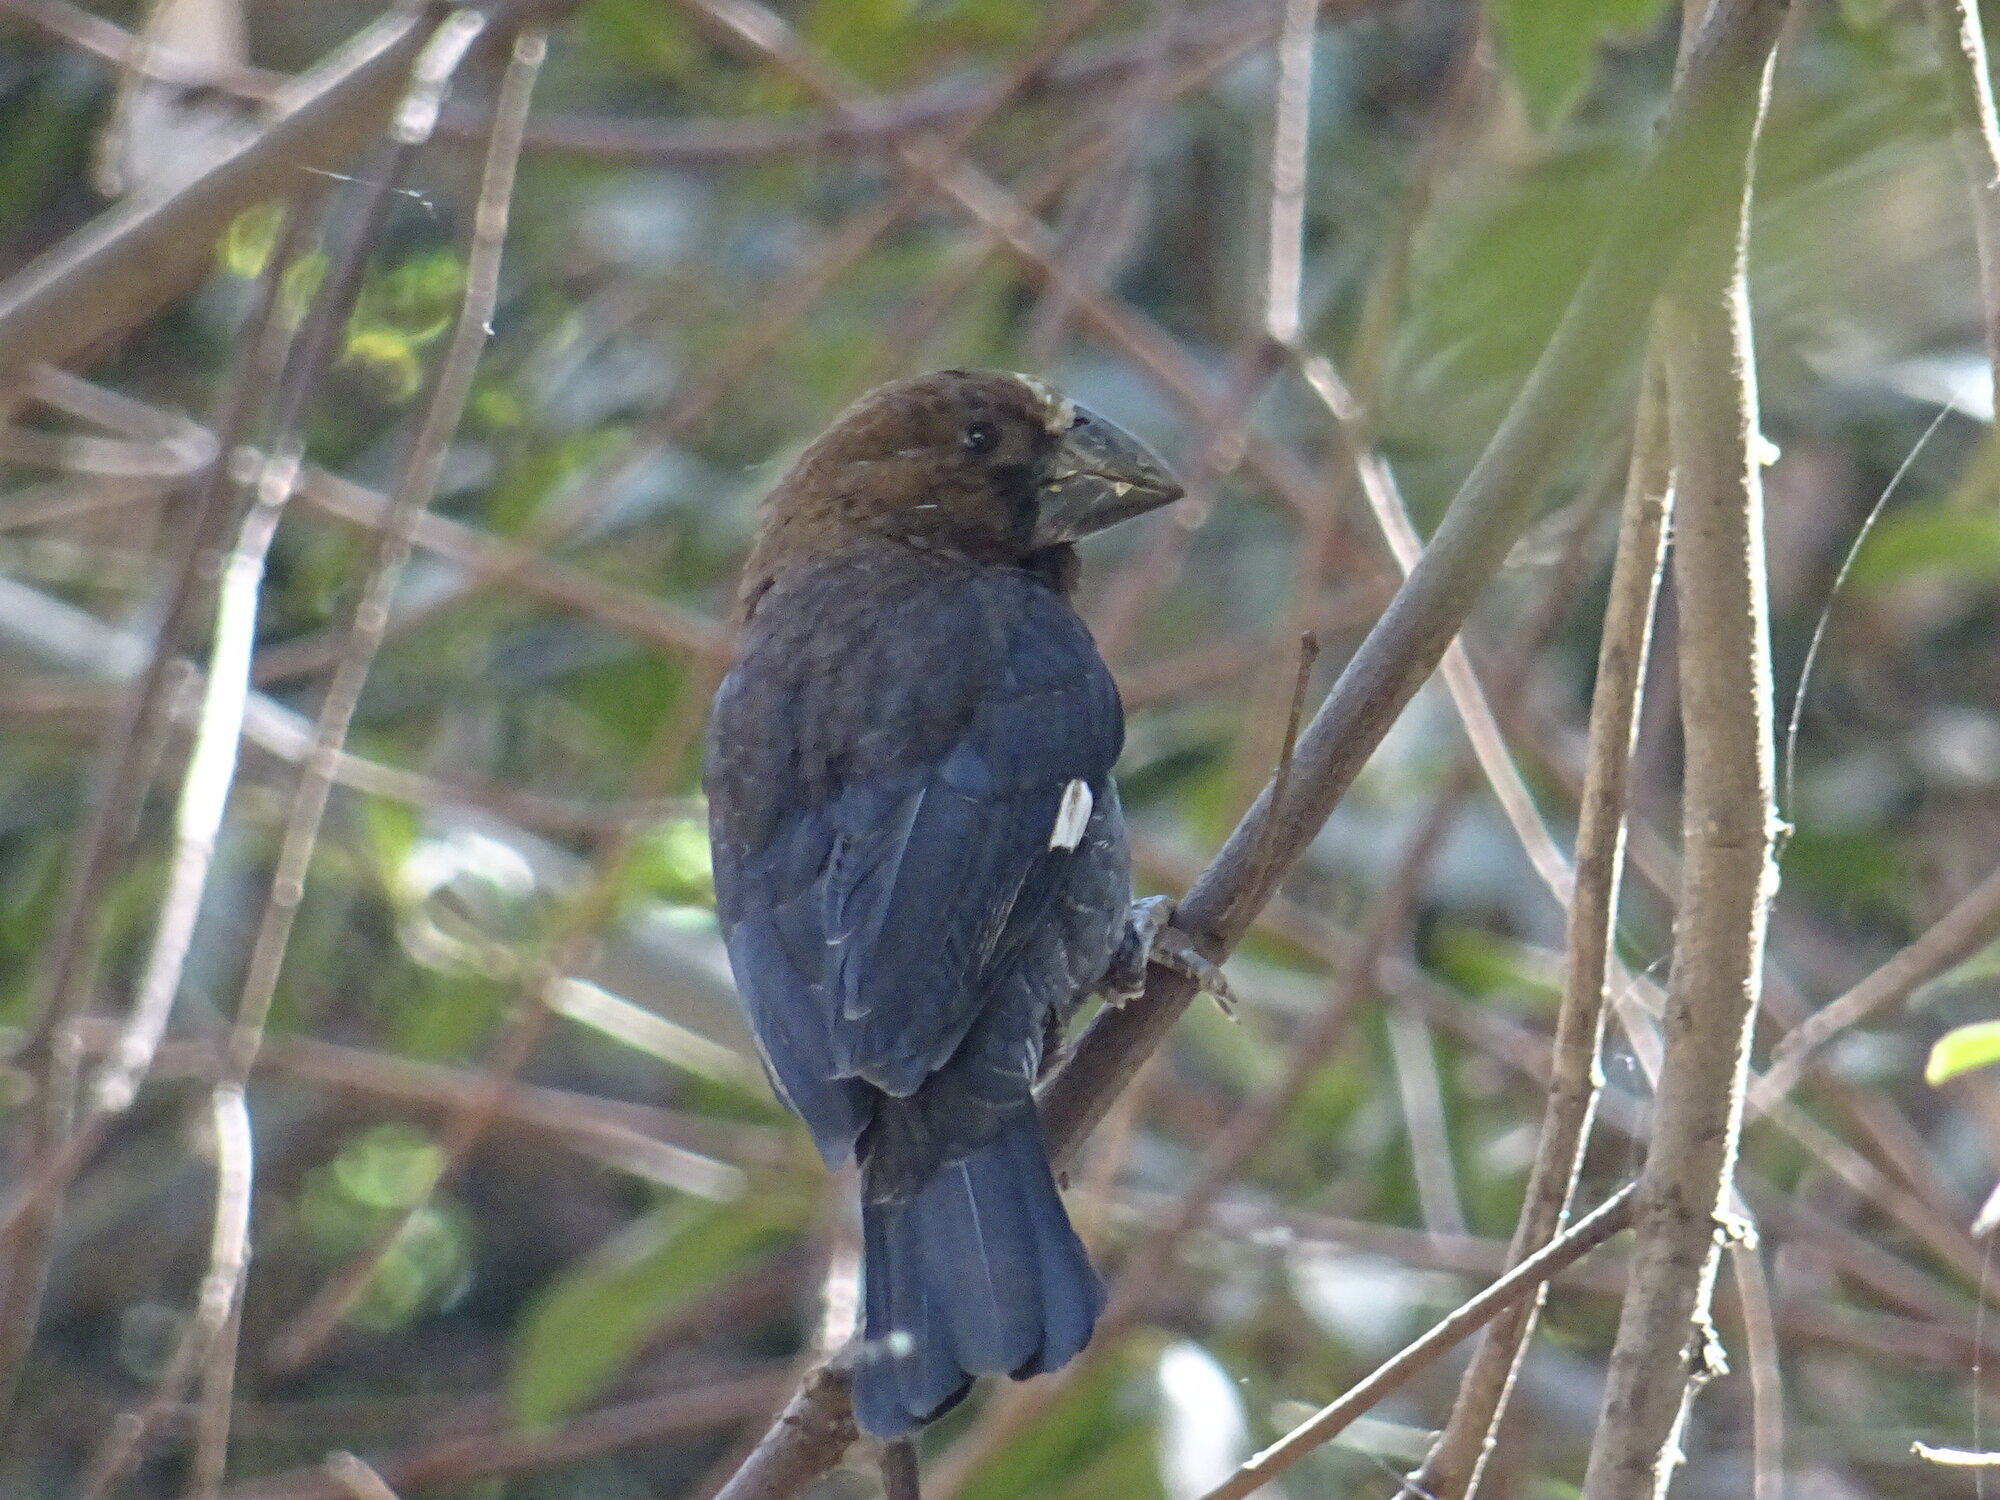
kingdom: Animalia
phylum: Chordata
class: Aves
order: Passeriformes
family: Ploceidae
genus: Amblyospiza
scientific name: Amblyospiza albifrons
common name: Thick-billed weaver
